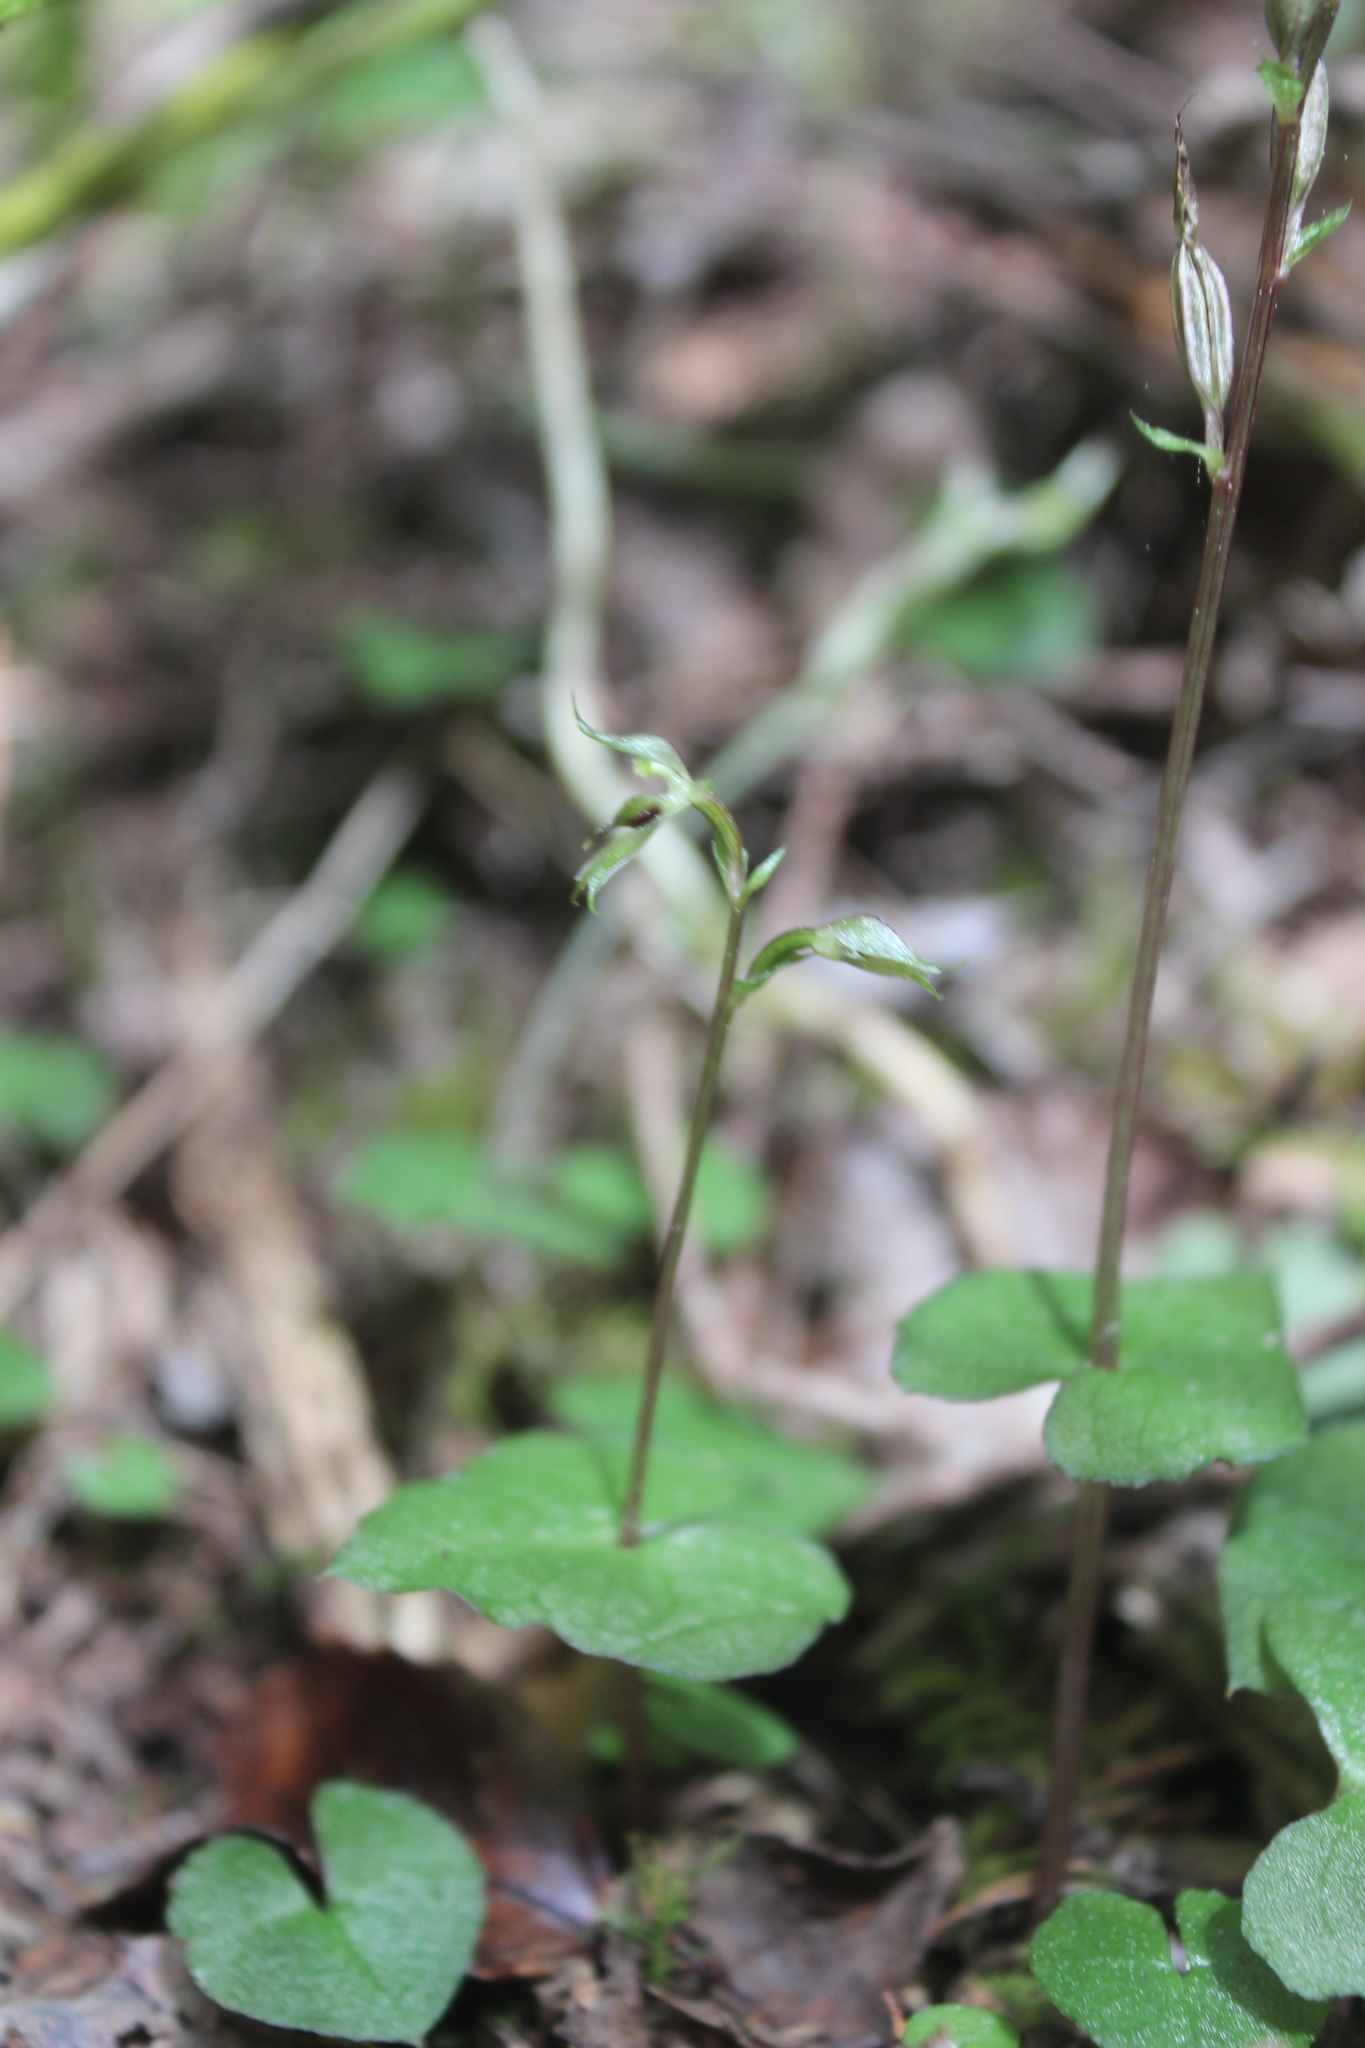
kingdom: Plantae
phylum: Tracheophyta
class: Liliopsida
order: Asparagales
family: Orchidaceae
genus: Acianthus
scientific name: Acianthus sinclairii
